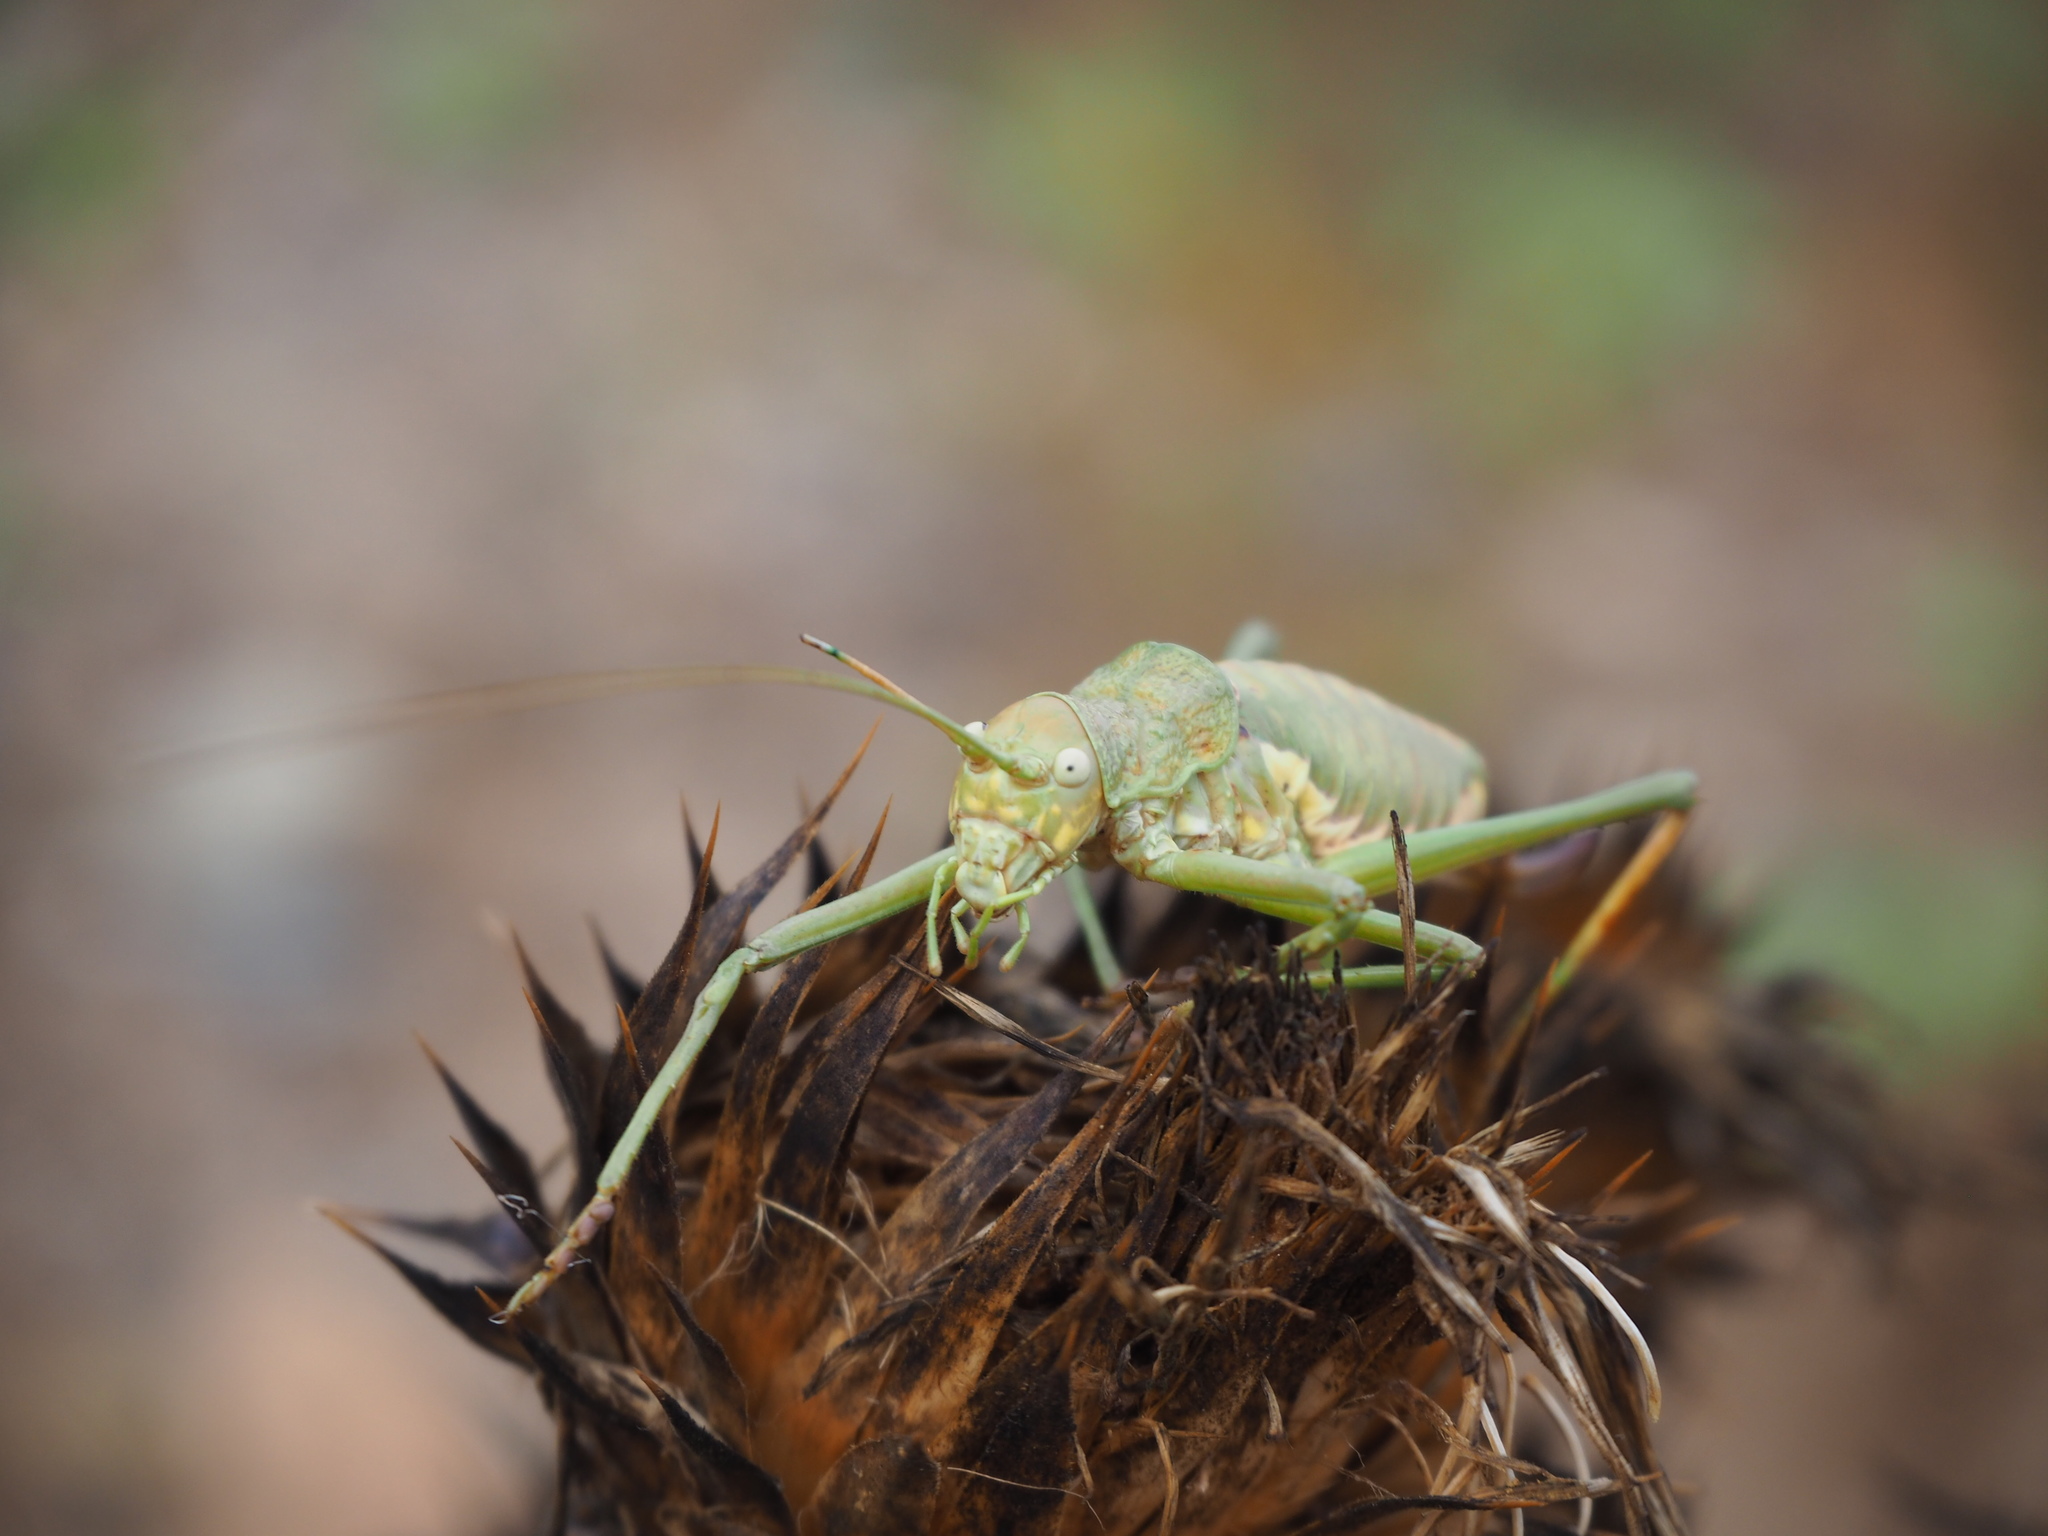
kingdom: Animalia
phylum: Arthropoda
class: Insecta
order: Orthoptera
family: Tettigoniidae
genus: Uromenus
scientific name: Uromenus brevicollis
